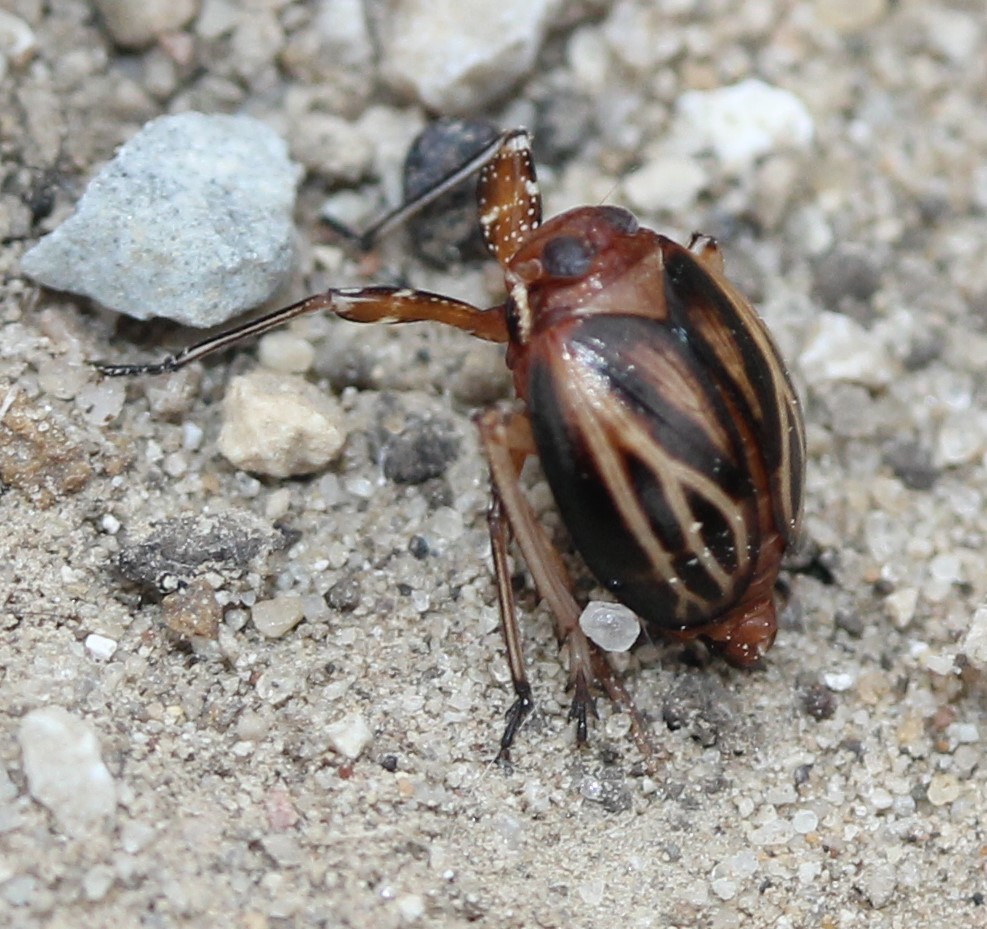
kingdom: Animalia
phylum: Arthropoda
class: Insecta
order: Hemiptera
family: Achilidae
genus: Isodaemon
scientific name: Isodaemon orontes
